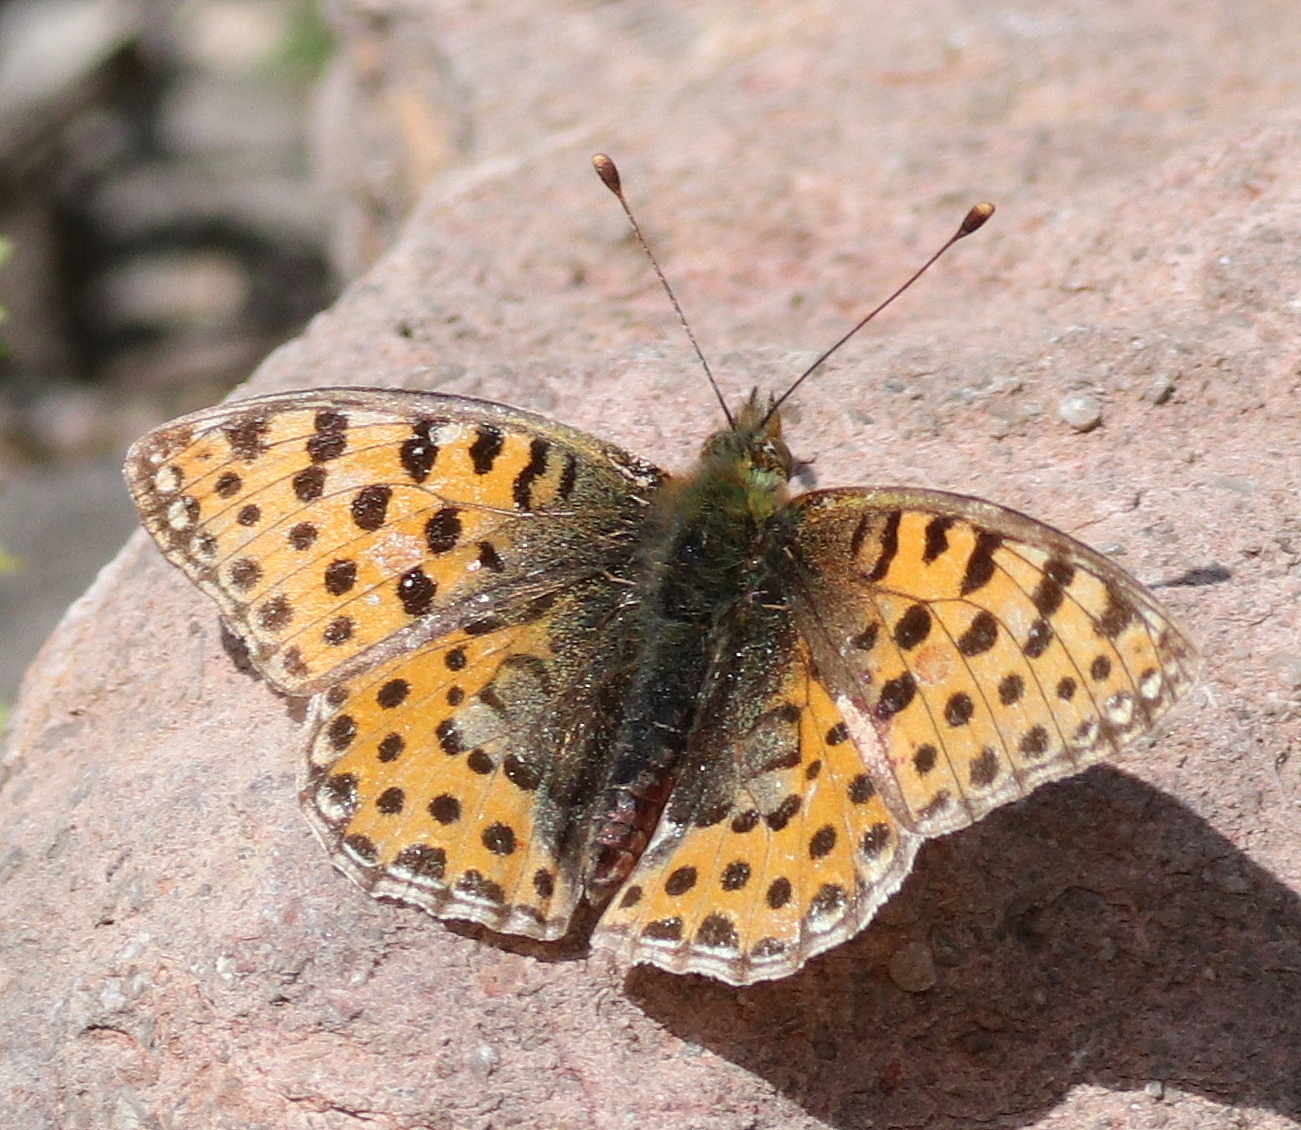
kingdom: Animalia
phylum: Arthropoda
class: Insecta
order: Lepidoptera
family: Nymphalidae
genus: Issoria
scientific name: Issoria lathonia
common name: Queen of spain fritillary
